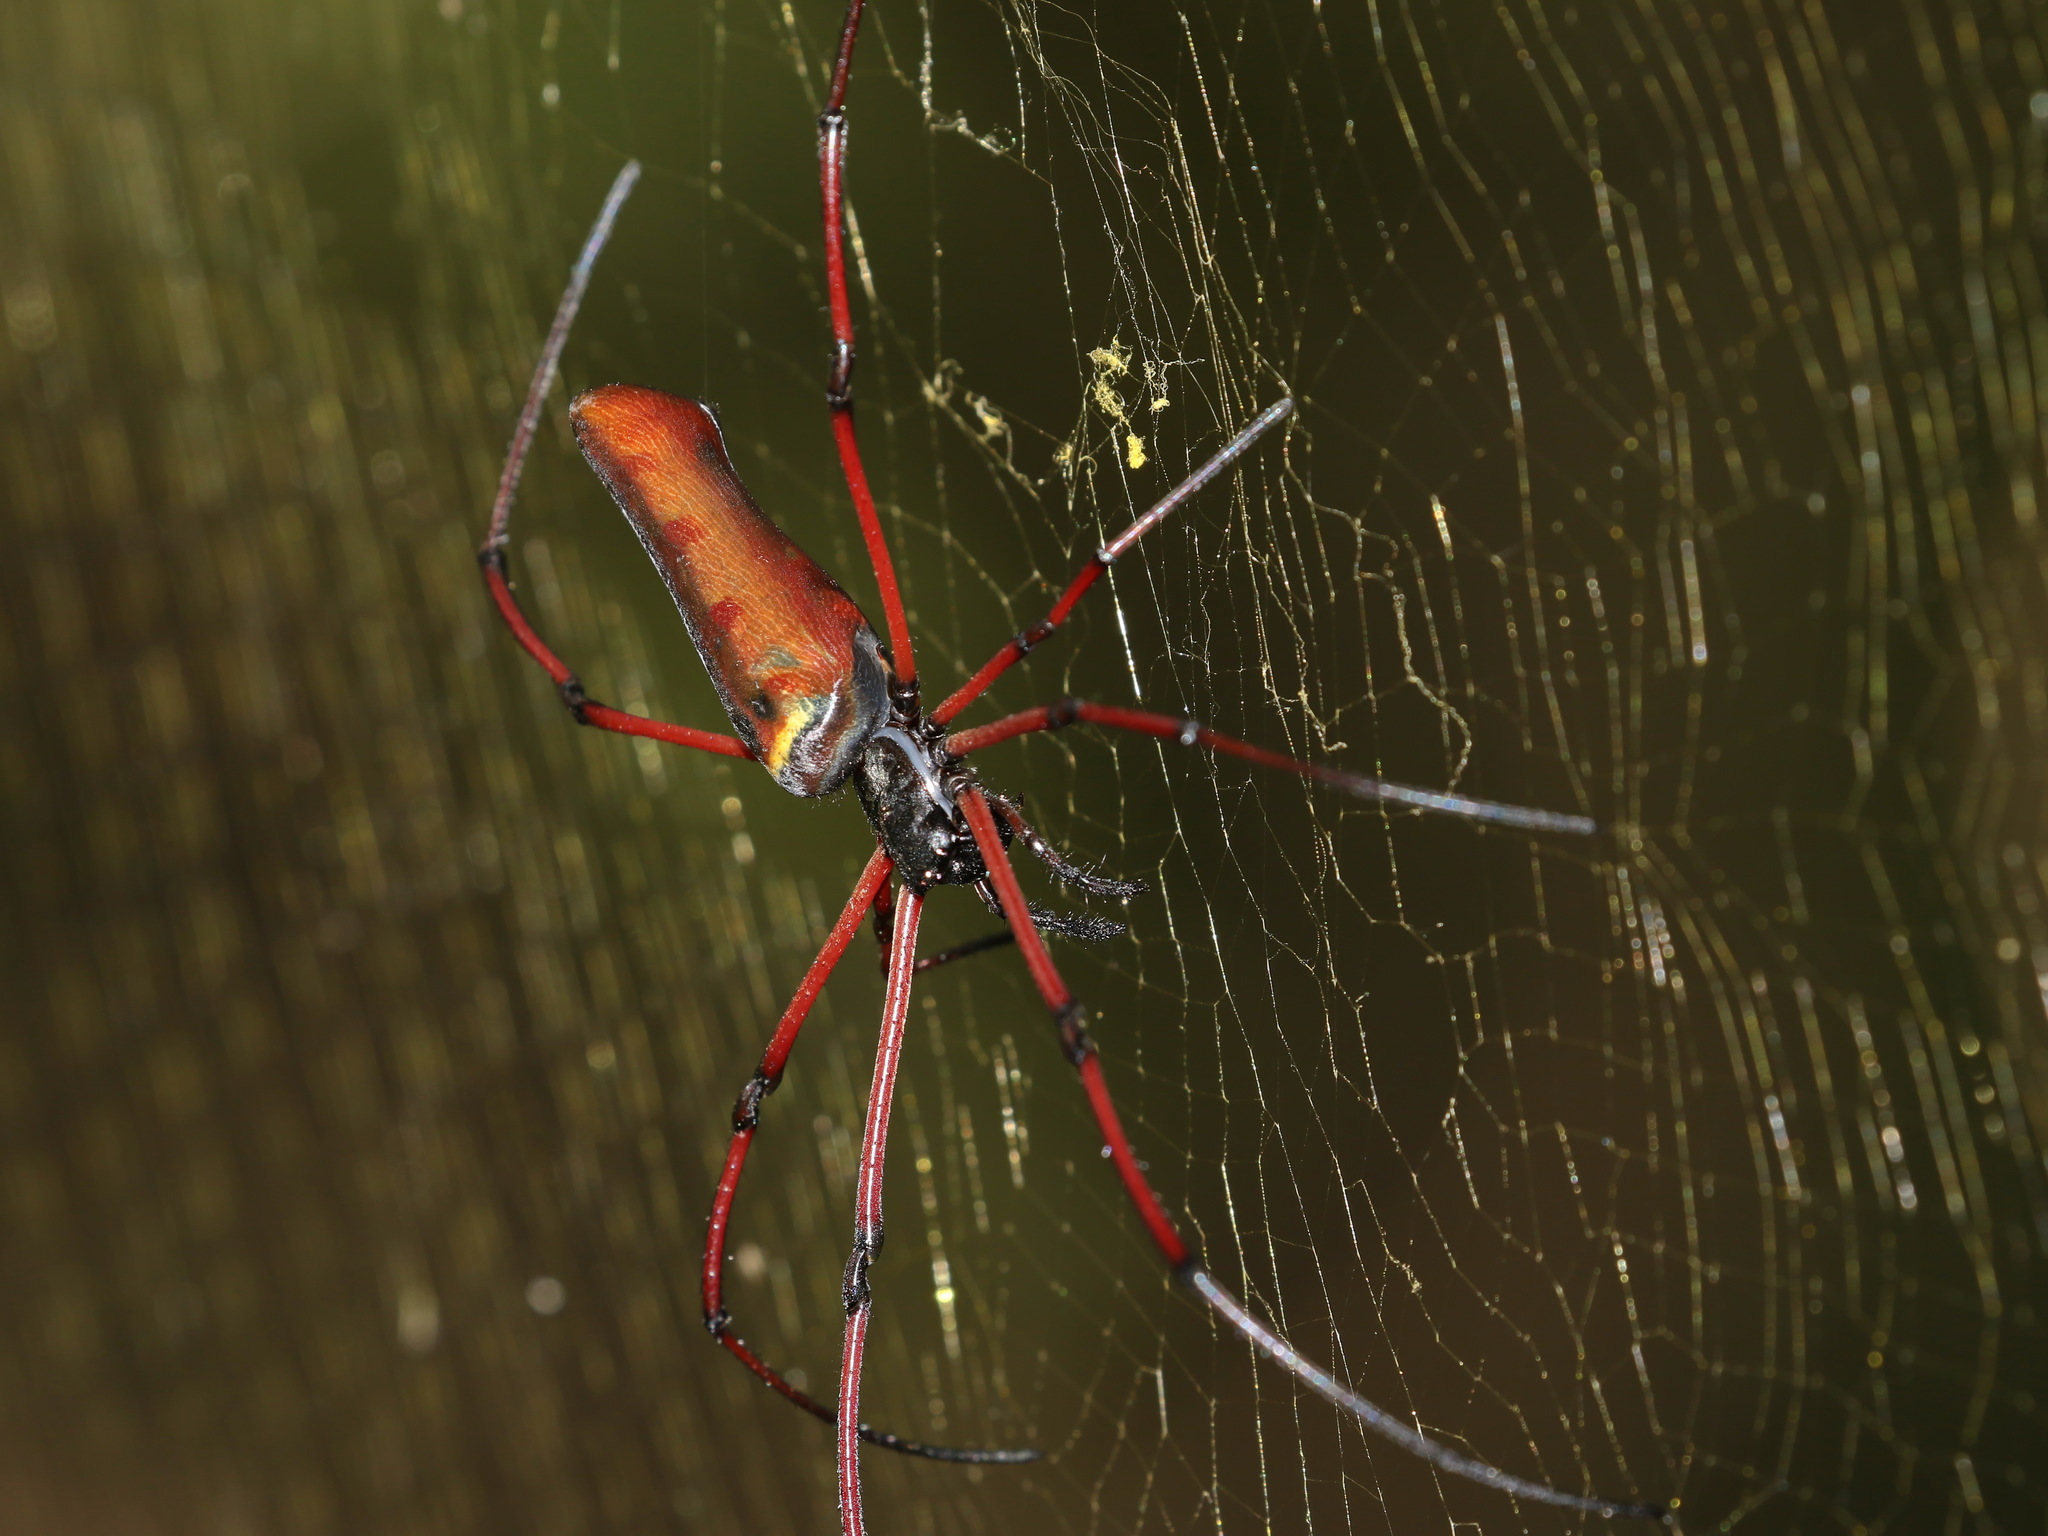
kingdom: Animalia
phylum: Arthropoda
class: Arachnida
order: Araneae
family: Araneidae
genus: Nephila
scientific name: Nephila kuhli
